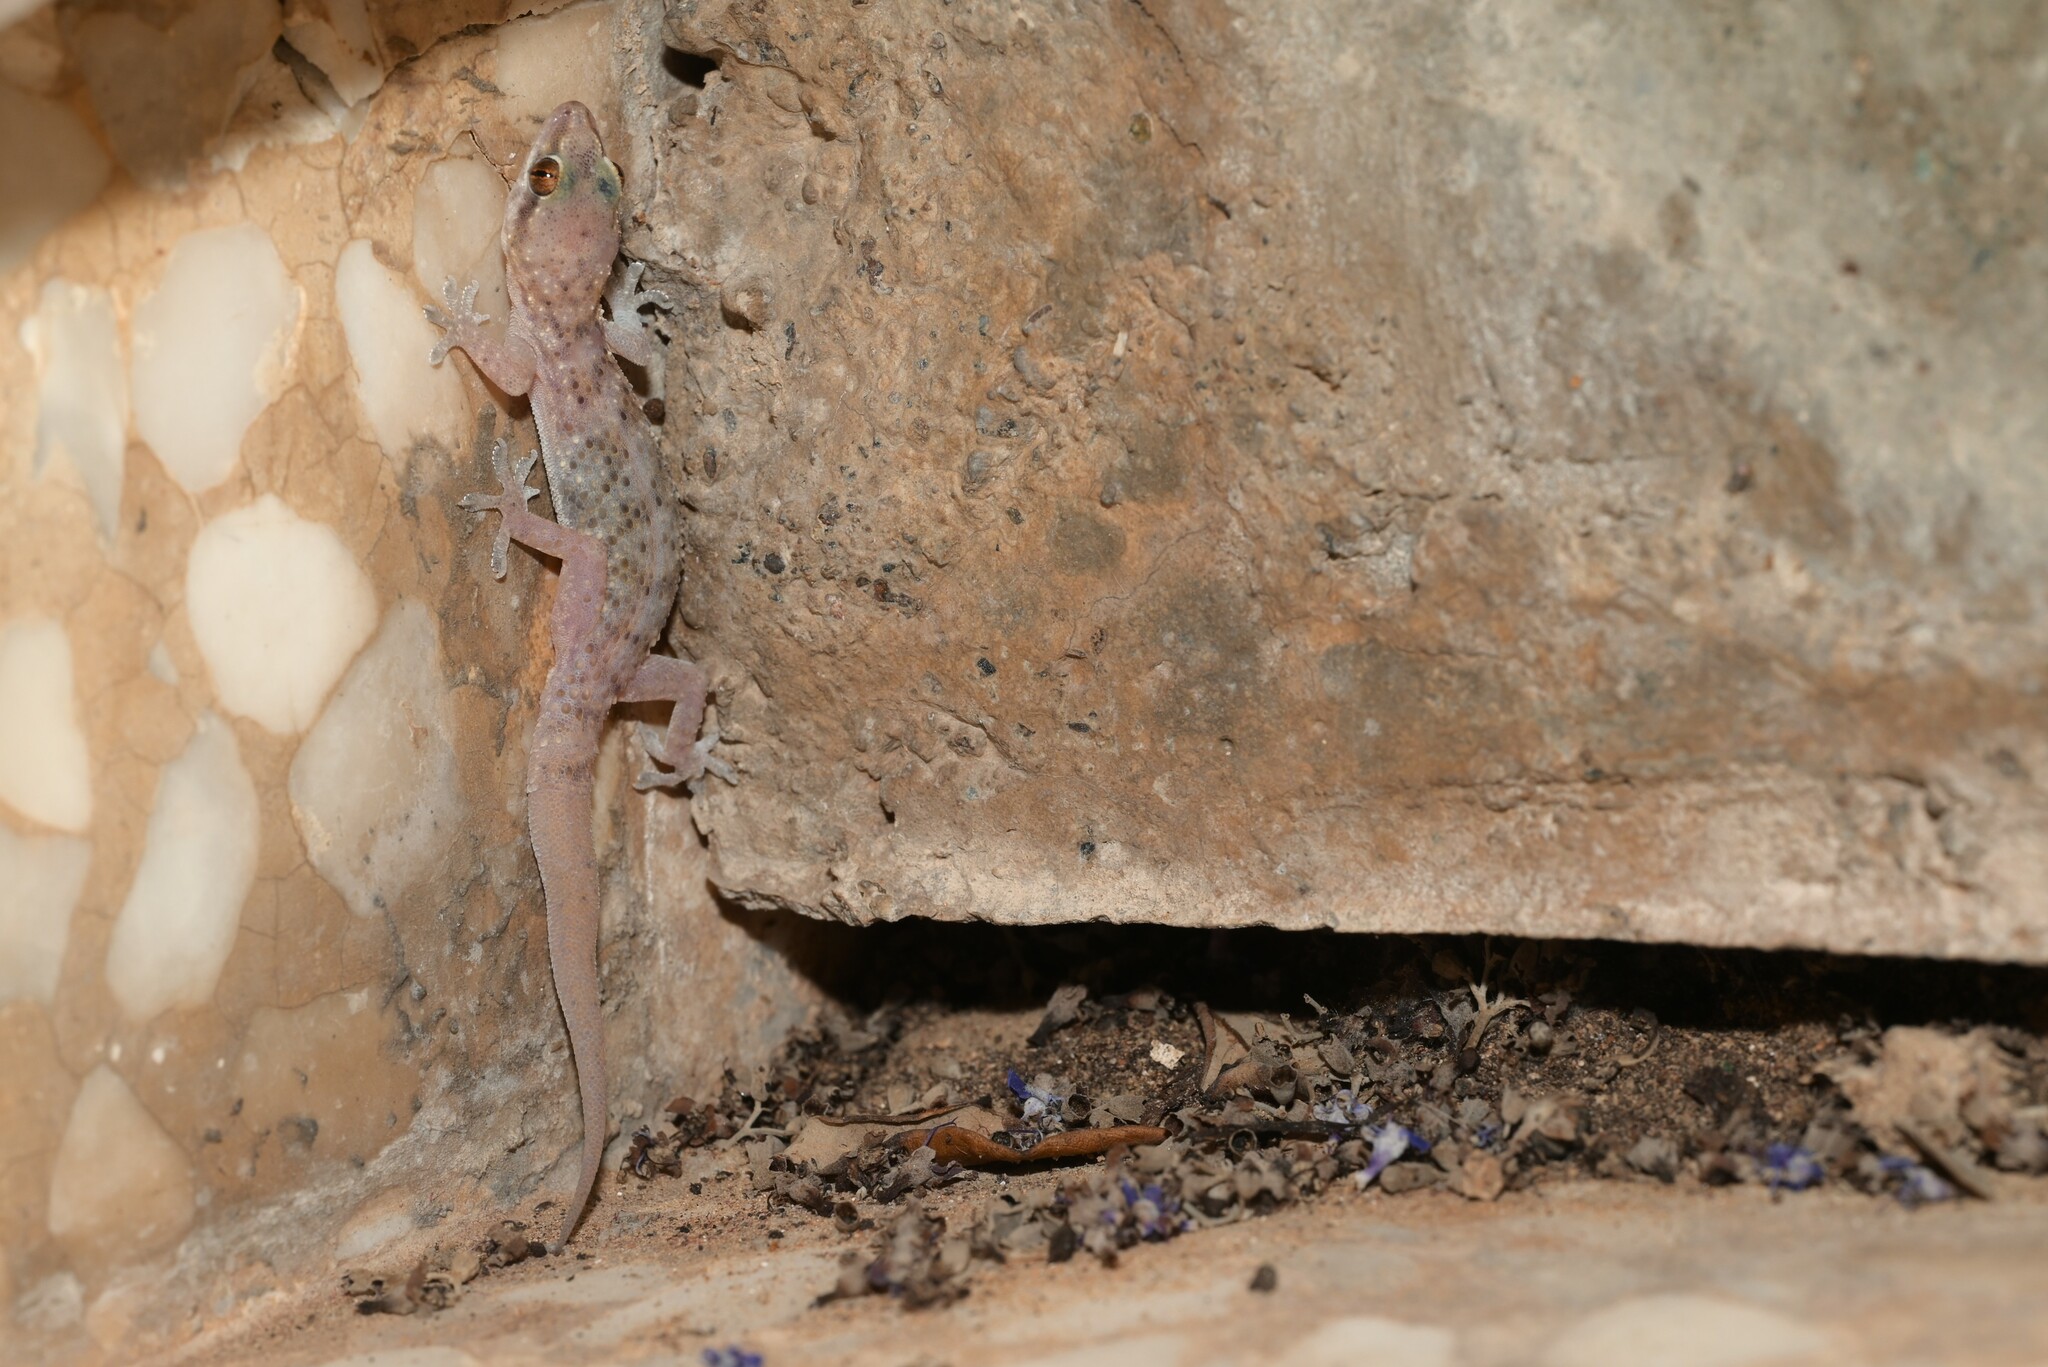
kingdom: Animalia
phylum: Chordata
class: Squamata
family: Gekkonidae
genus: Hemidactylus
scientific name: Hemidactylus robustus
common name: Heyden’s gecko
